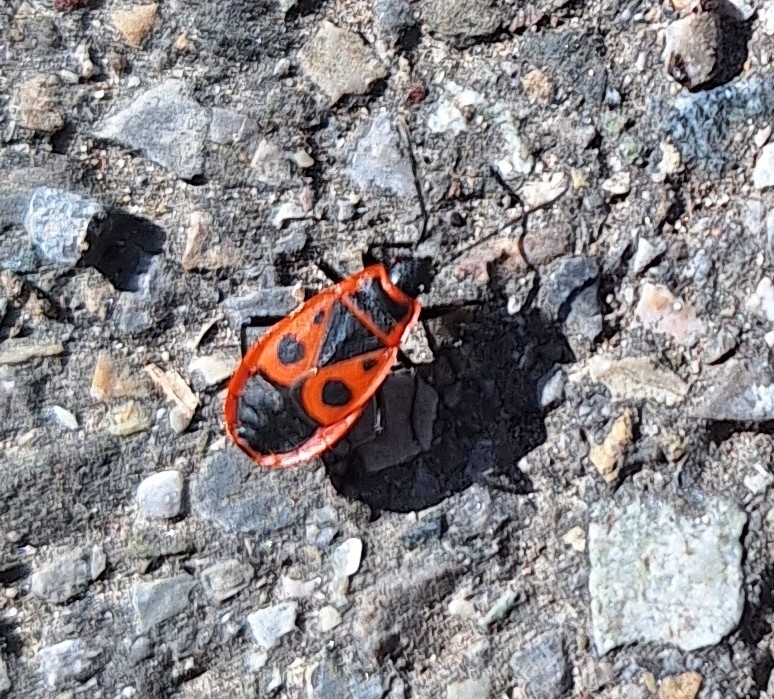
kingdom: Animalia
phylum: Arthropoda
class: Insecta
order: Hemiptera
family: Pyrrhocoridae
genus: Pyrrhocoris
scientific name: Pyrrhocoris apterus
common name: Firebug
